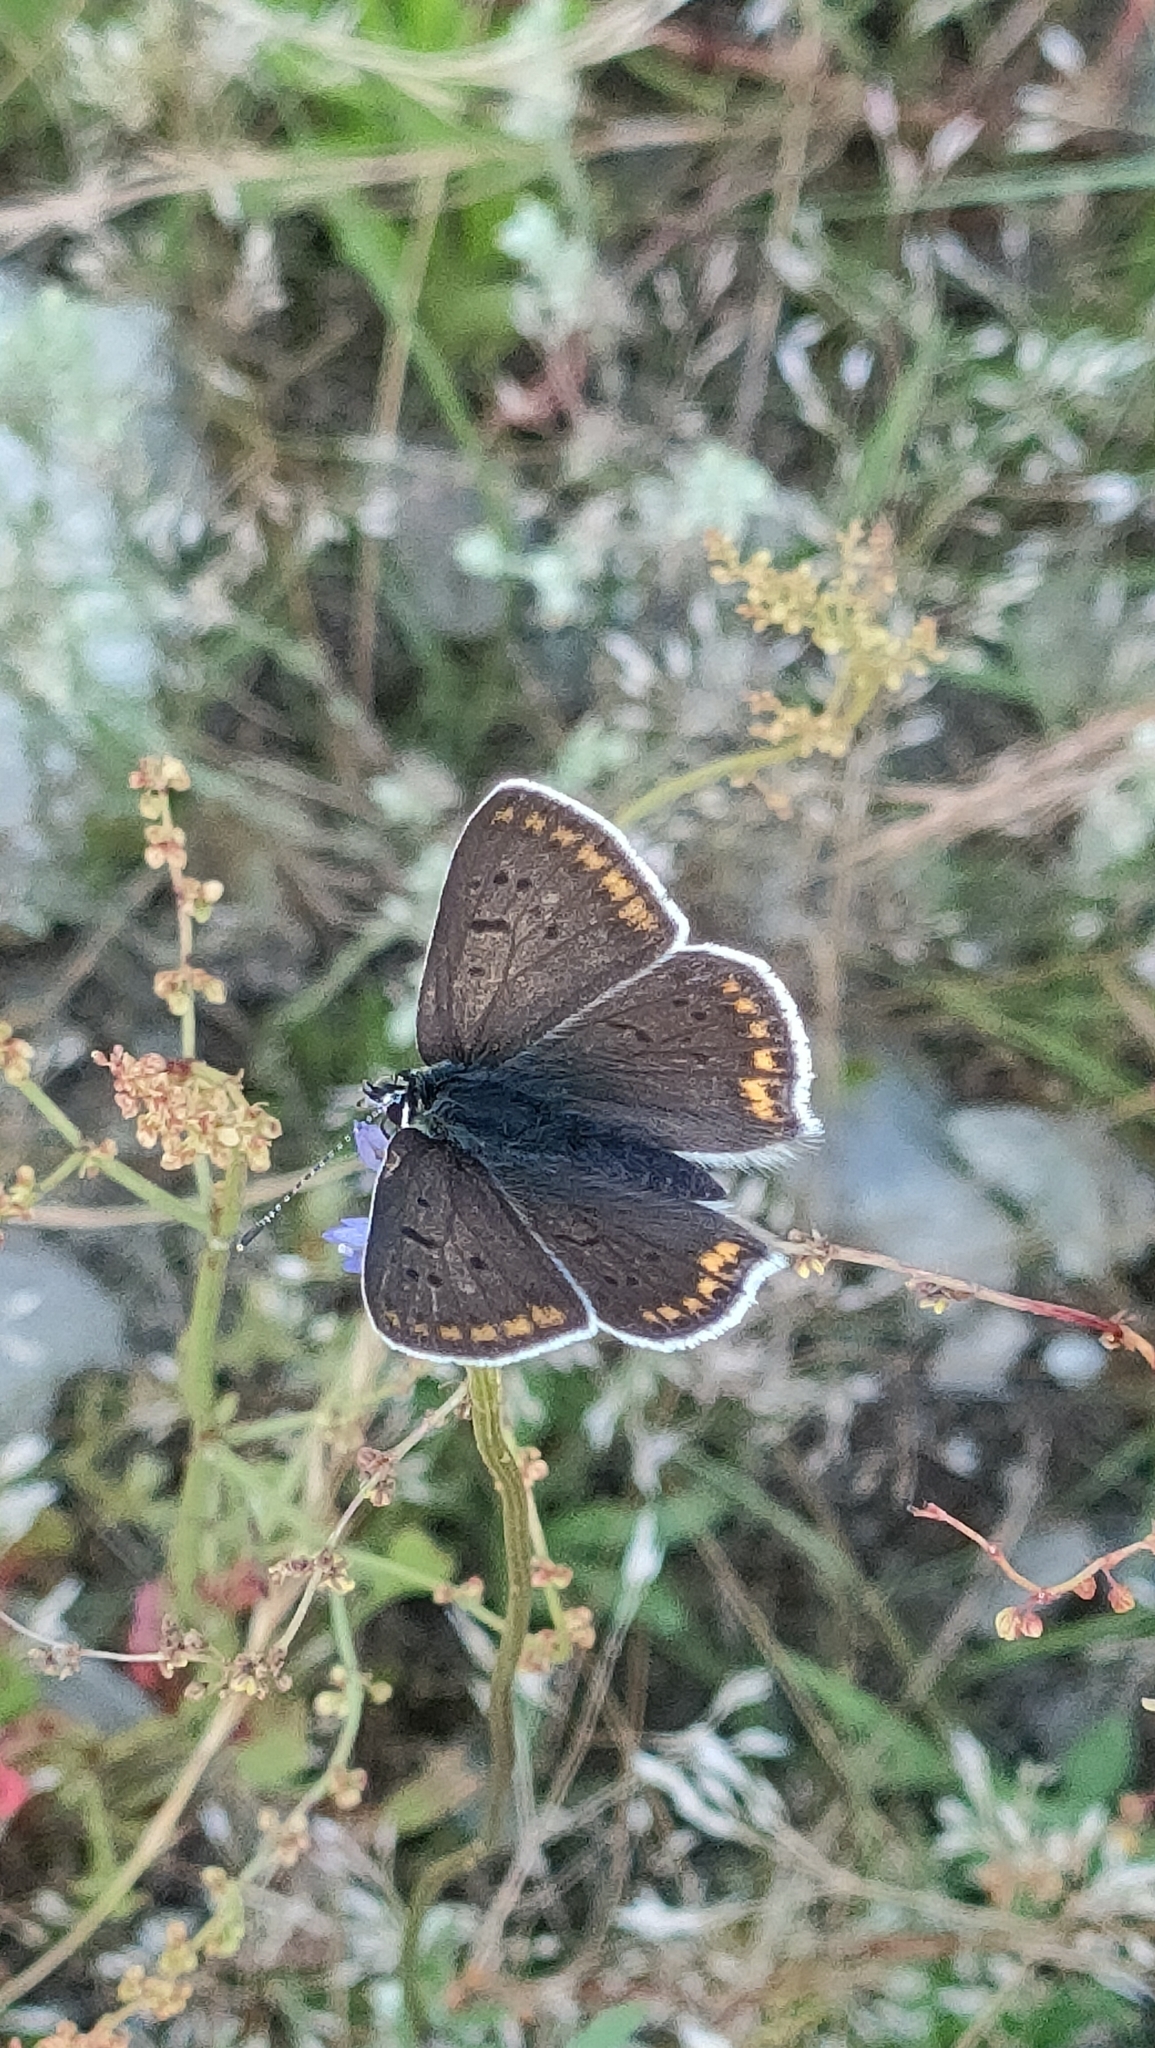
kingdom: Animalia
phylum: Arthropoda
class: Insecta
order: Lepidoptera
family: Lycaenidae
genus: Loweia
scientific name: Loweia tityrus
